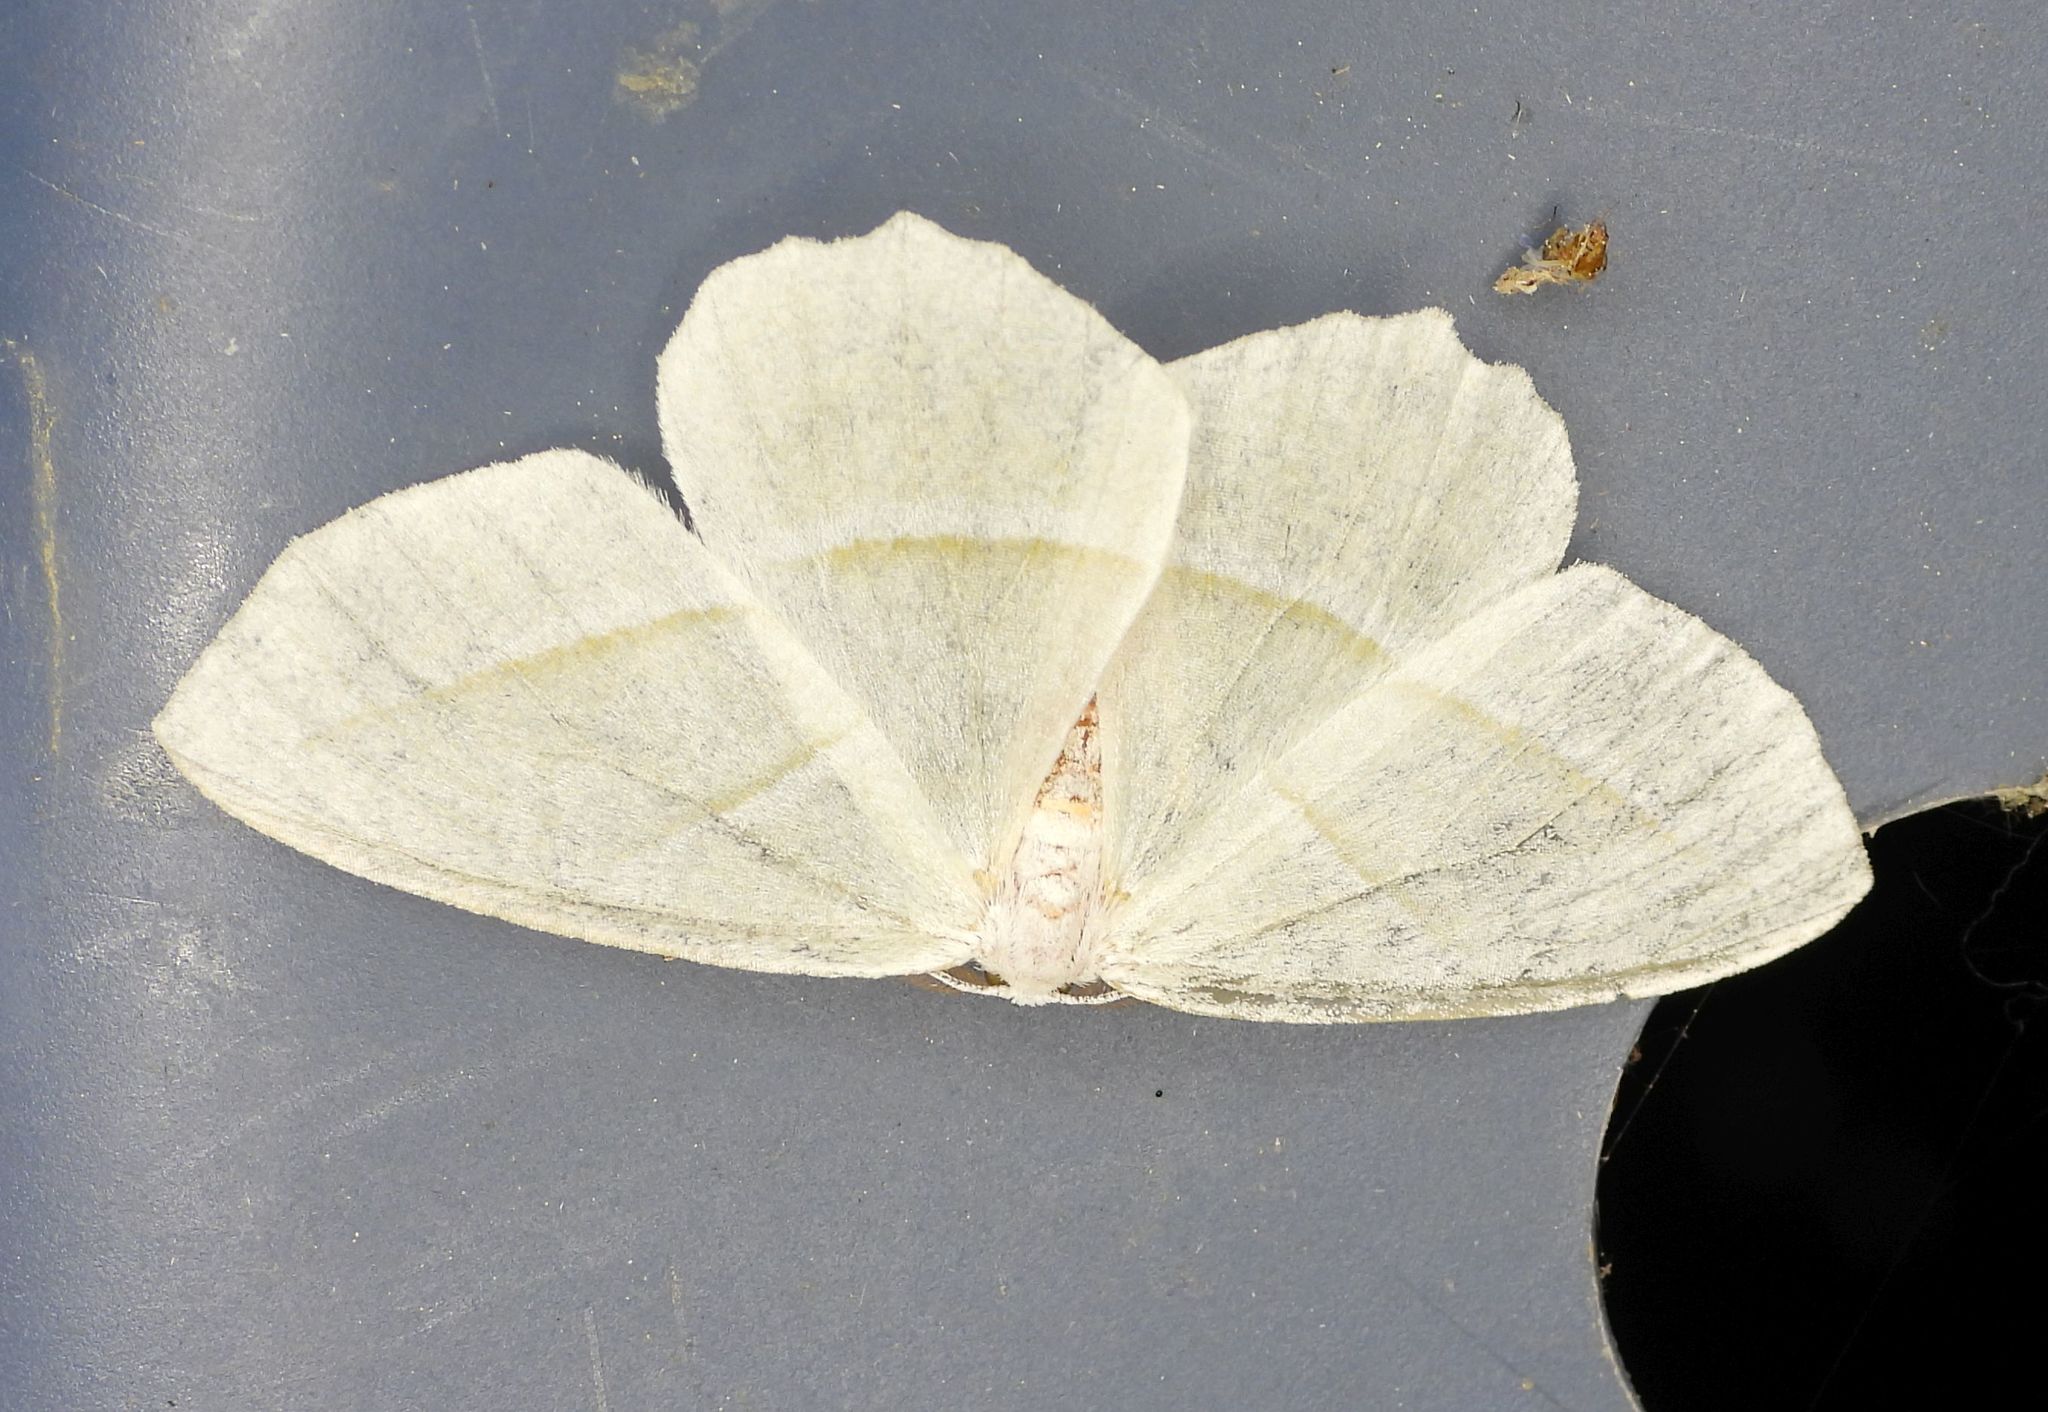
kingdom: Animalia
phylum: Arthropoda
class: Insecta
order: Lepidoptera
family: Geometridae
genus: Campaea
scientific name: Campaea perlata
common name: Fringed looper
